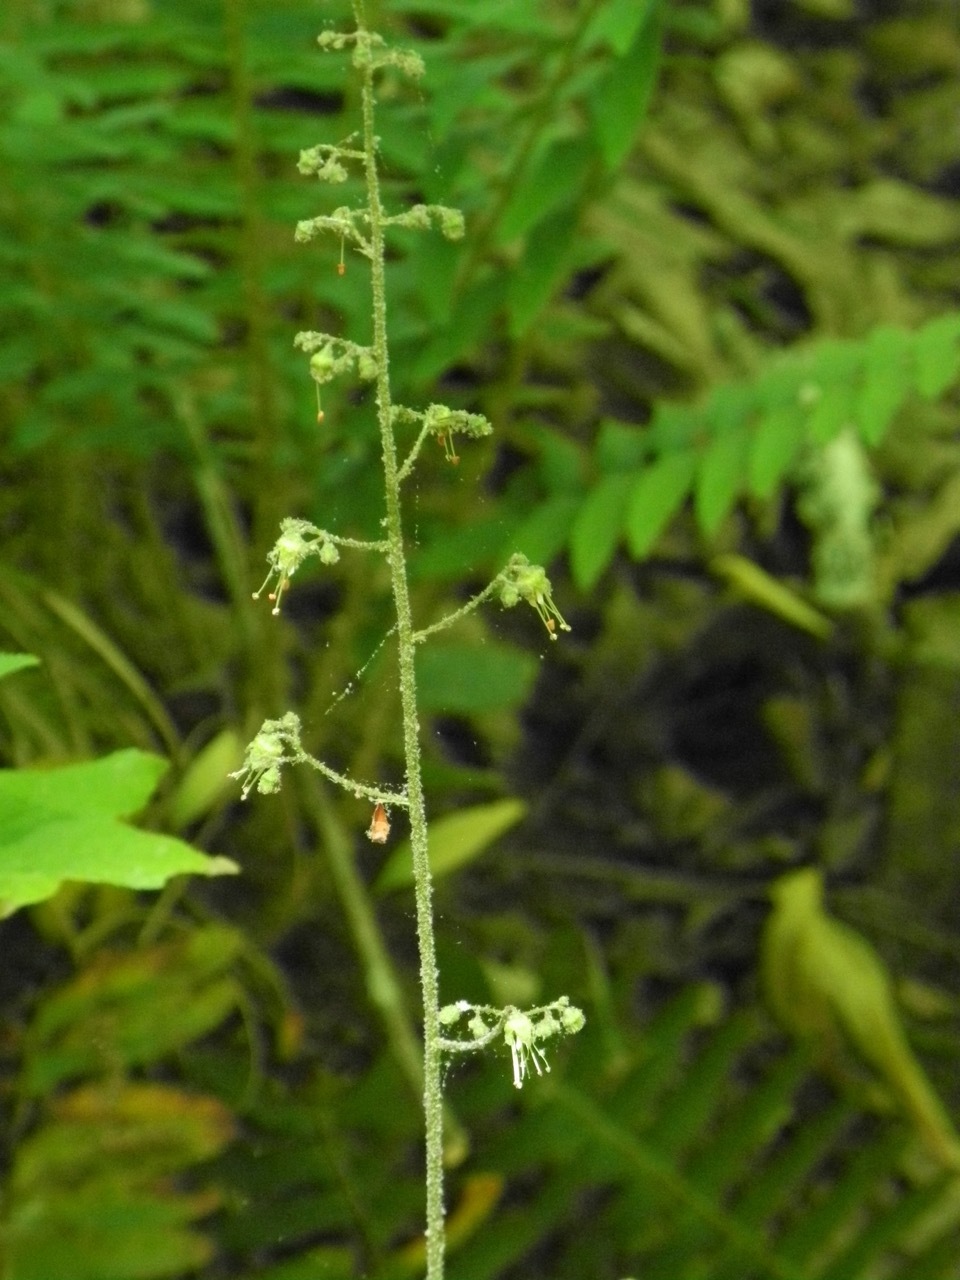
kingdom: Plantae
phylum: Tracheophyta
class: Magnoliopsida
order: Saxifragales
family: Saxifragaceae
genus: Heuchera
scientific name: Heuchera americana
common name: Alumroot
